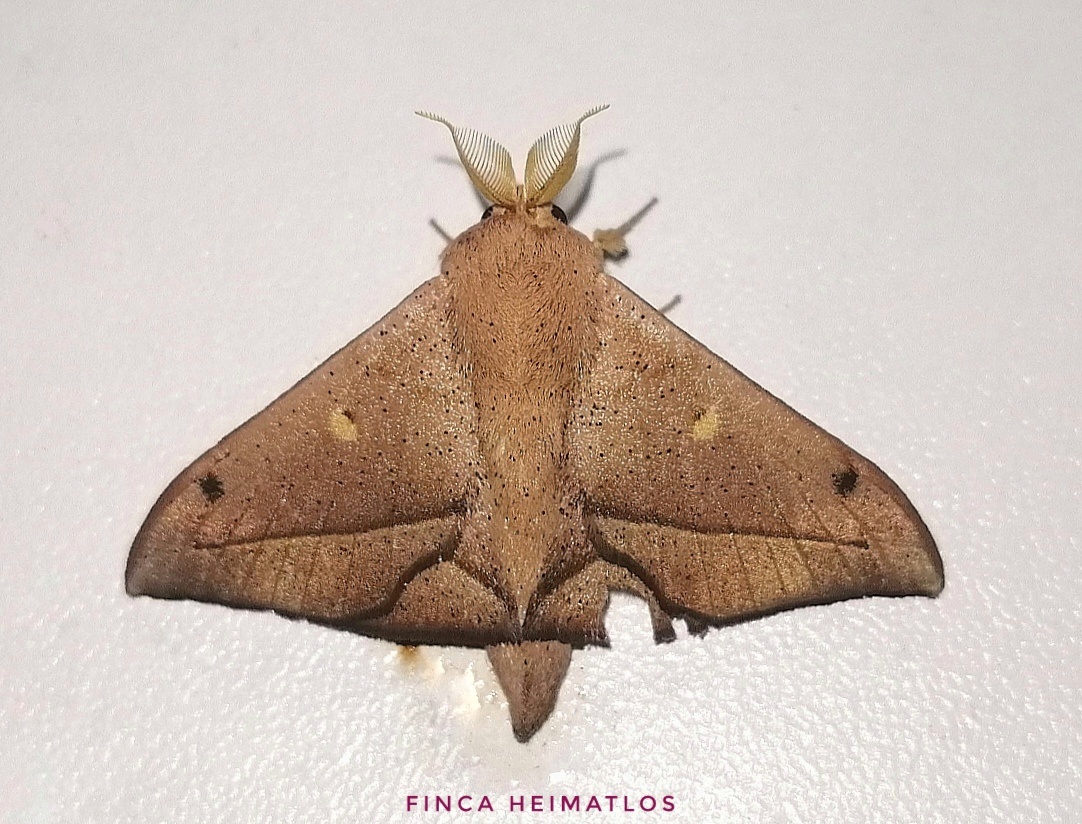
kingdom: Animalia
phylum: Arthropoda
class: Insecta
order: Lepidoptera
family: Mimallonidae
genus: Druentica
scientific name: Druentica partha
